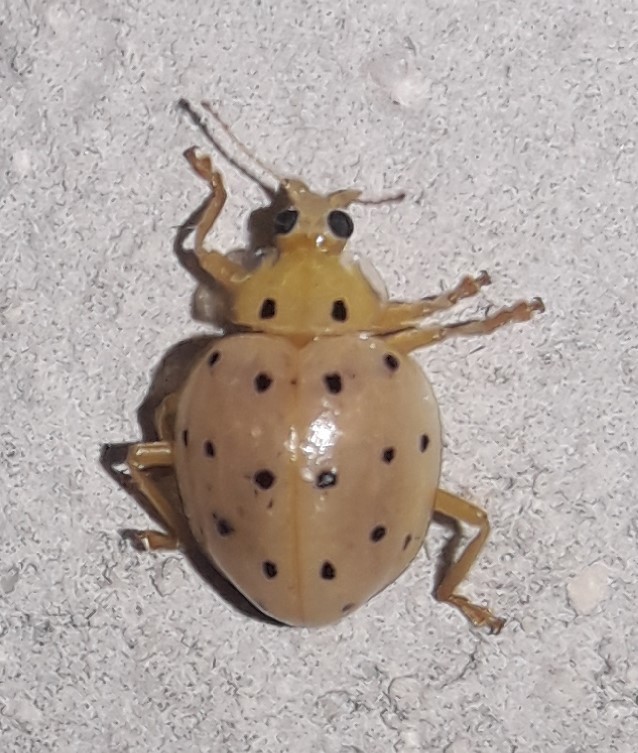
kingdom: Animalia
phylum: Arthropoda
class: Insecta
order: Coleoptera
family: Coccinellidae
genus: Neohalyzia
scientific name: Neohalyzia
